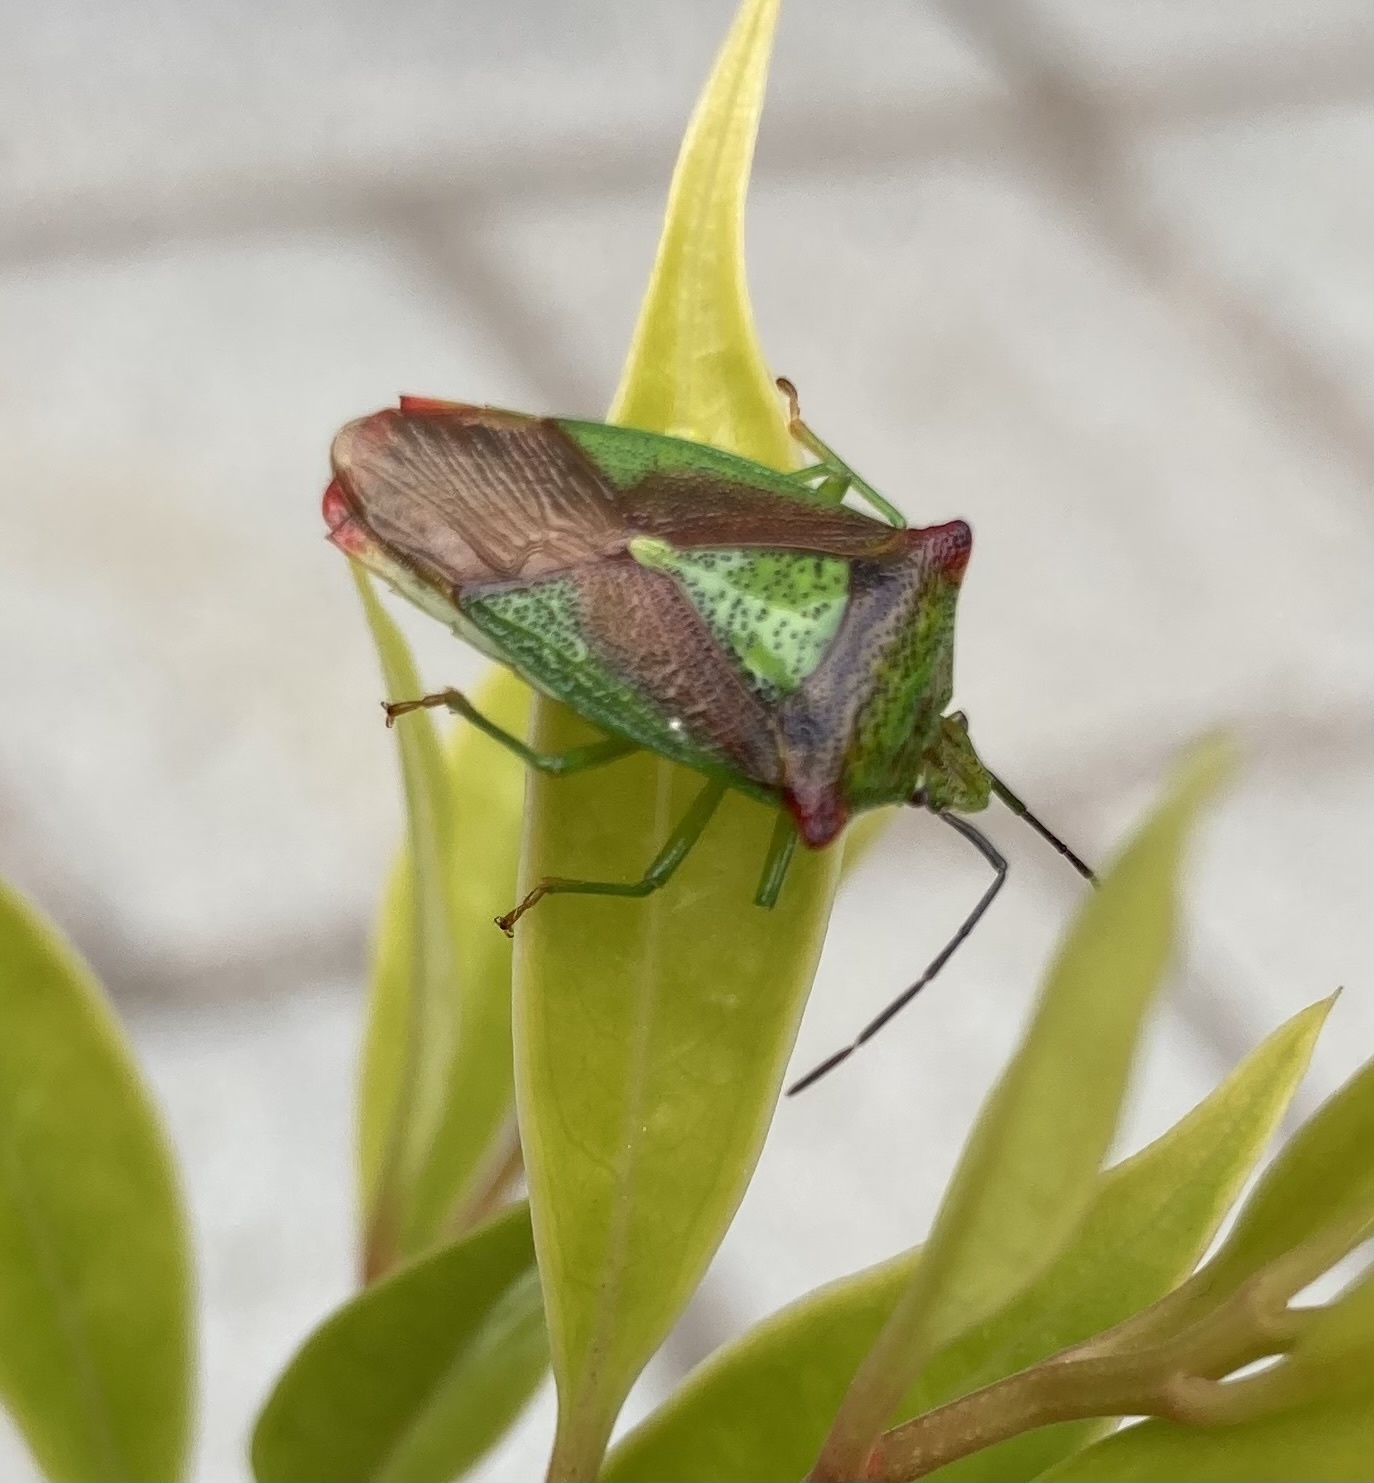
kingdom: Animalia
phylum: Arthropoda
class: Insecta
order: Hemiptera
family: Acanthosomatidae
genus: Acanthosoma
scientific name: Acanthosoma haemorrhoidale
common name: Hawthorn shieldbug
